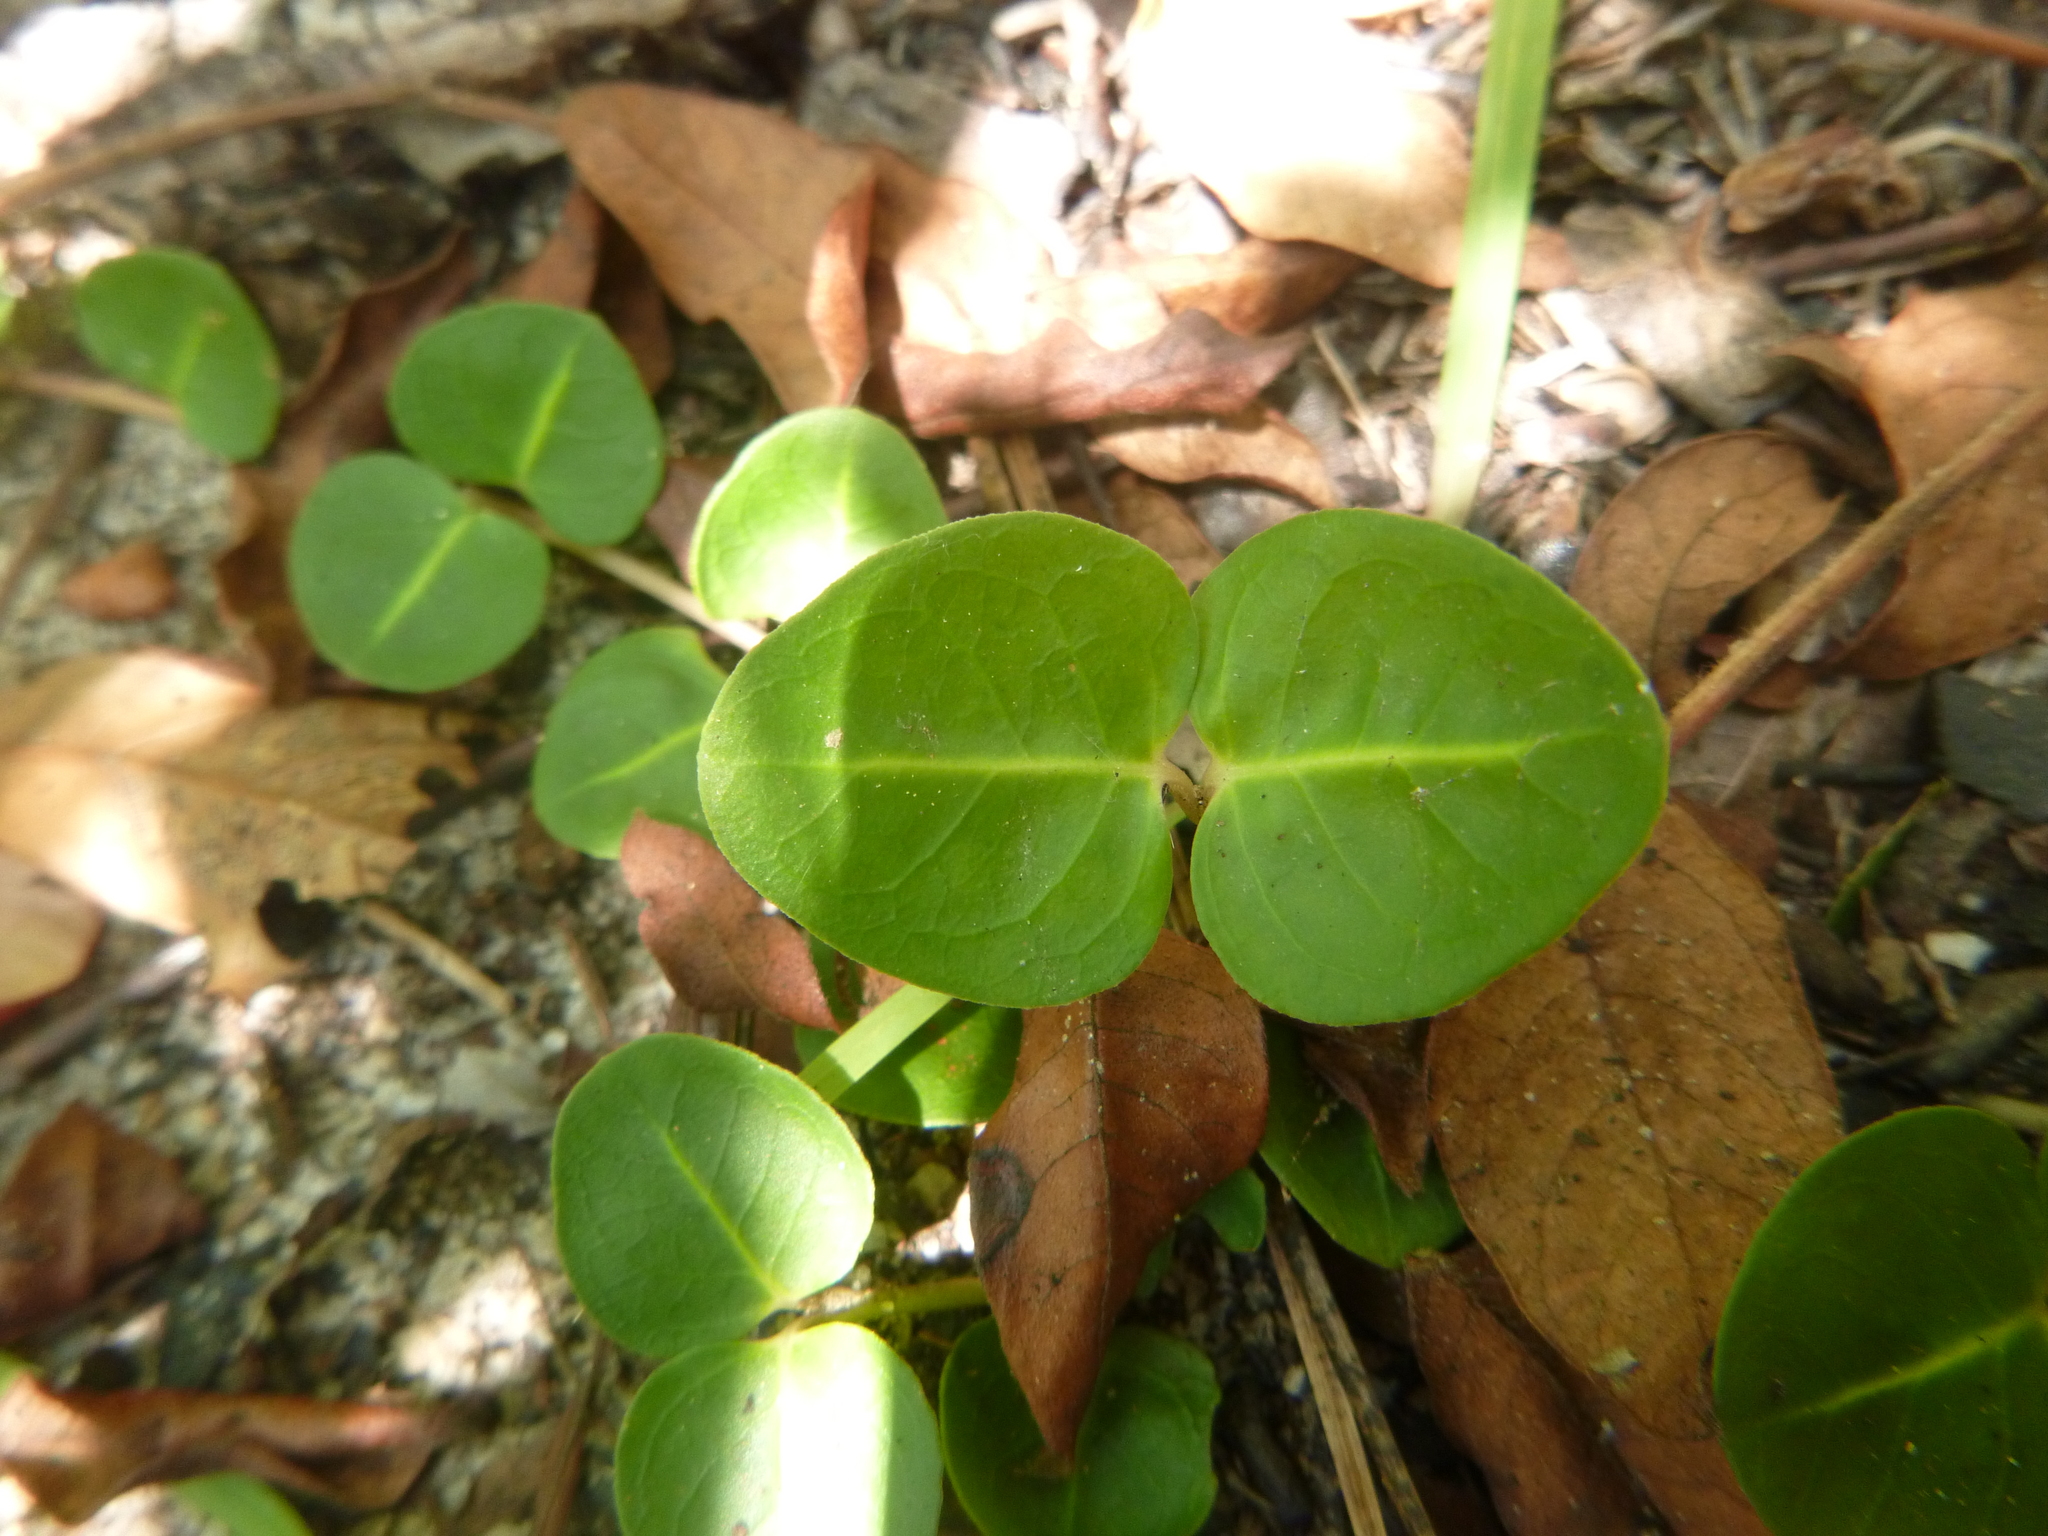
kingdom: Plantae
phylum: Tracheophyta
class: Magnoliopsida
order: Gentianales
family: Rubiaceae
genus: Mitchella
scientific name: Mitchella repens
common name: Partridge-berry
